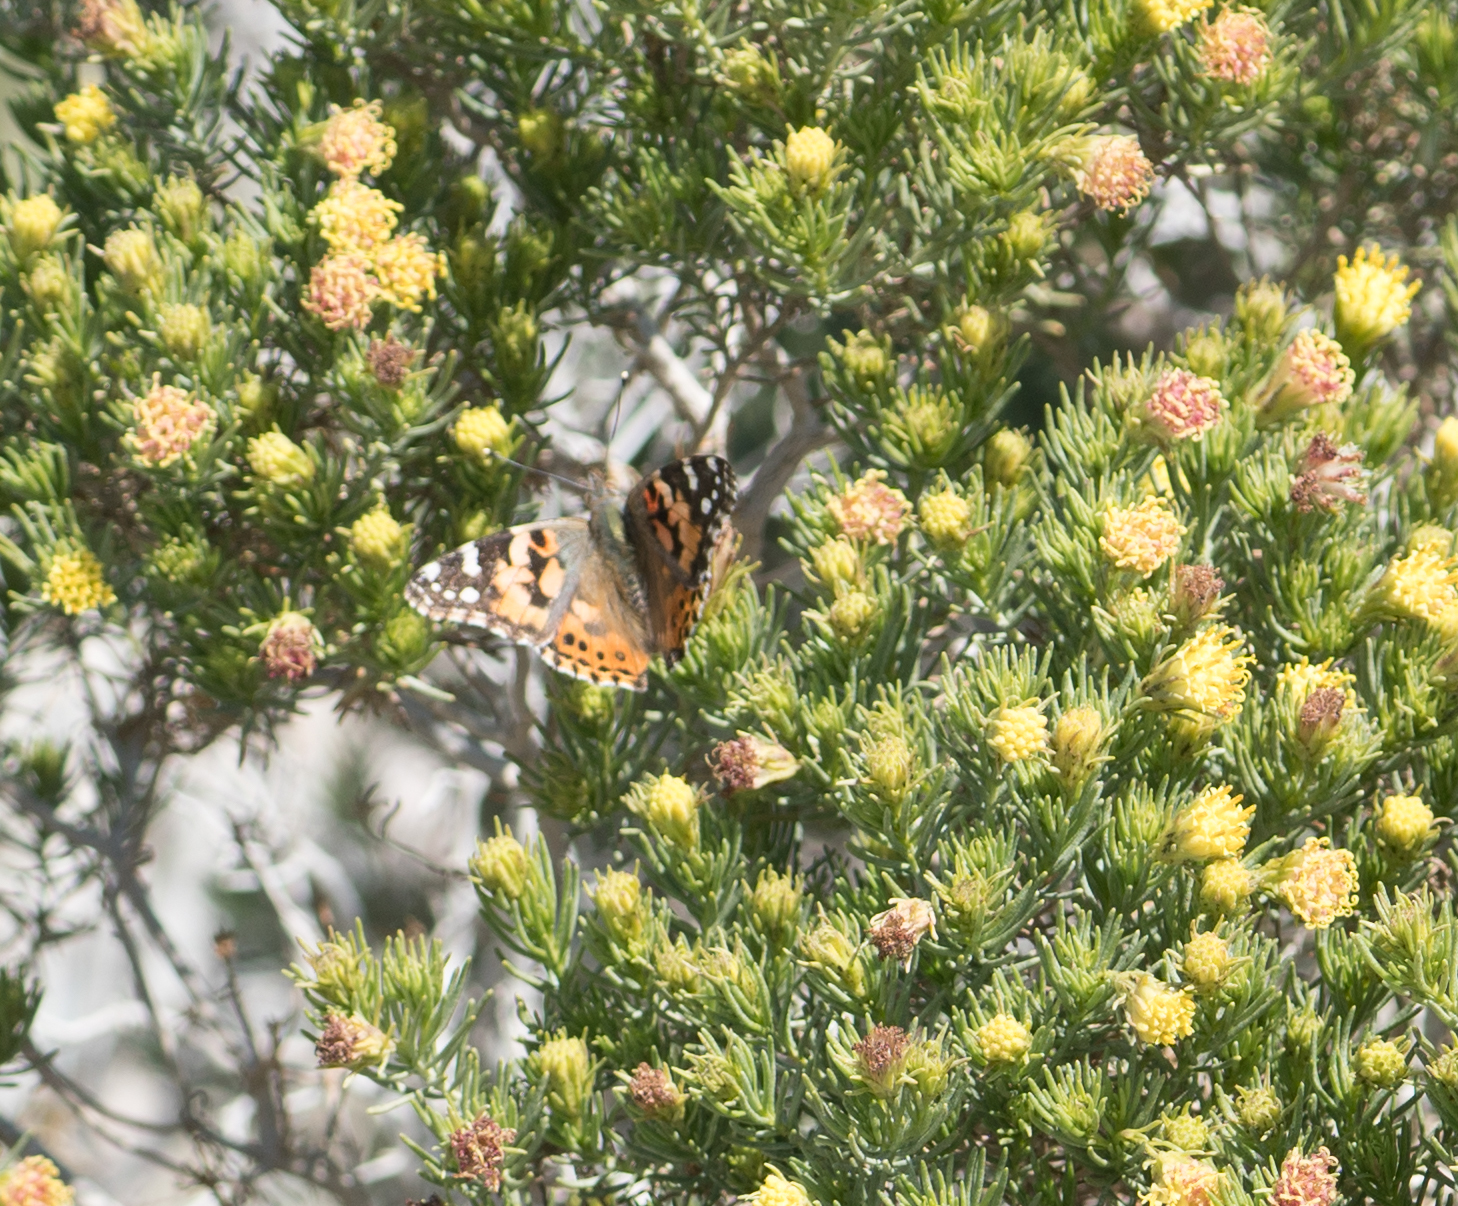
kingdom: Animalia
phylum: Arthropoda
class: Insecta
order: Lepidoptera
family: Nymphalidae
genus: Vanessa
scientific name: Vanessa cardui
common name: Painted lady
